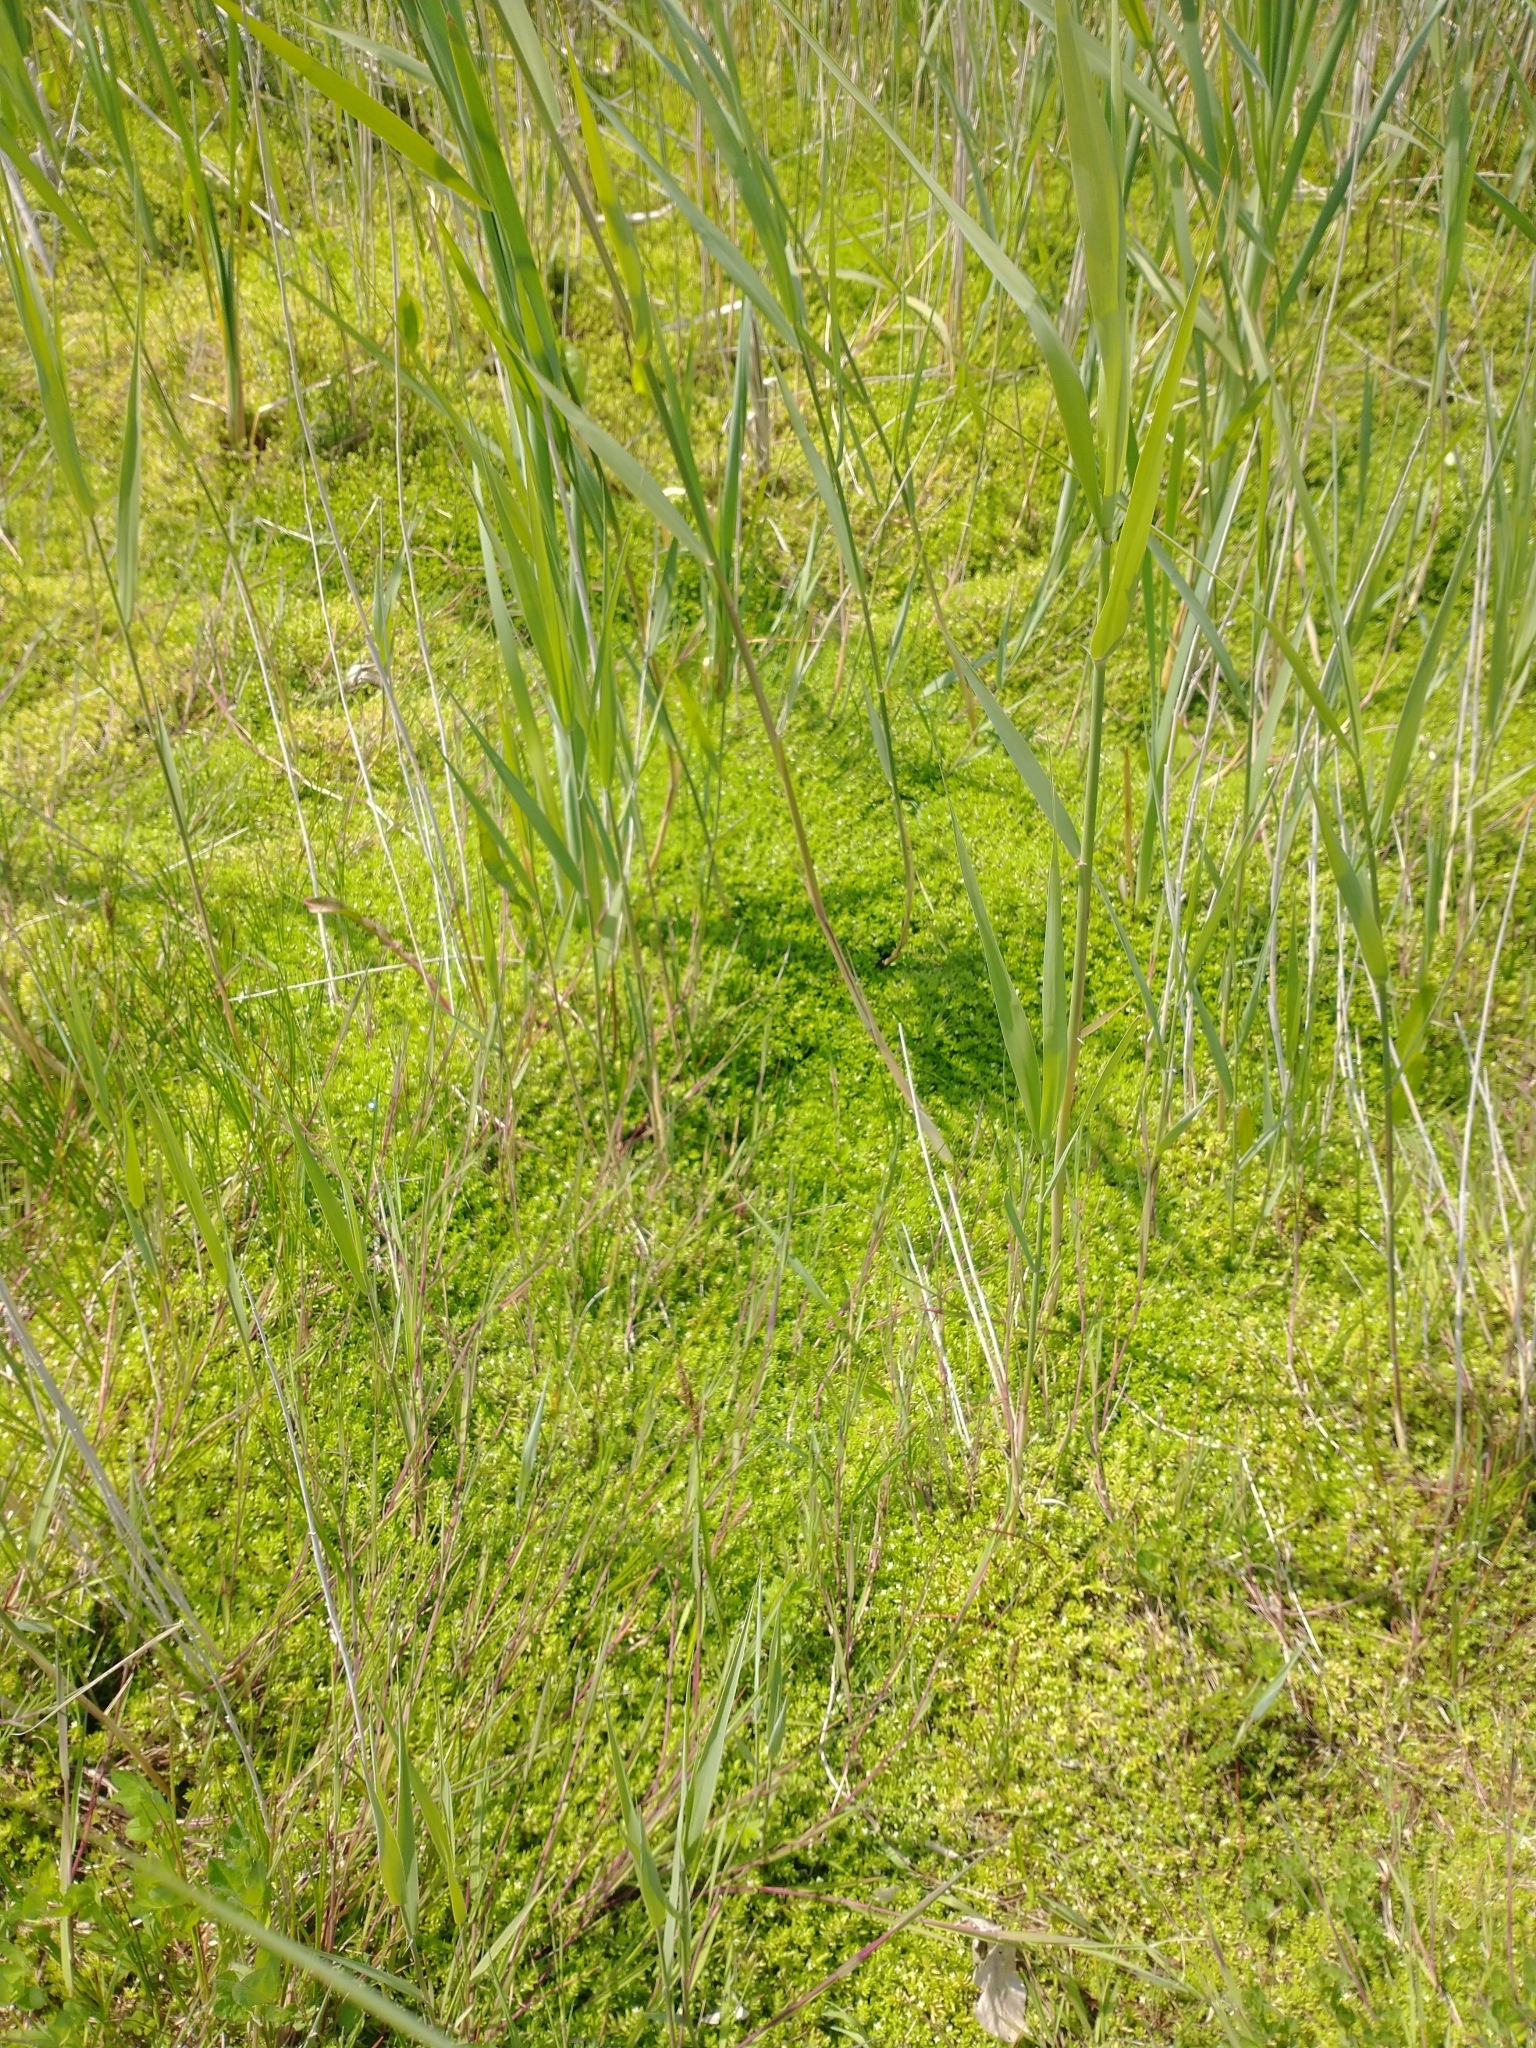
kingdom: Plantae
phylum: Tracheophyta
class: Magnoliopsida
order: Saxifragales
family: Crassulaceae
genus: Crassula
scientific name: Crassula helmsii
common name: New zealand pigmyweed
